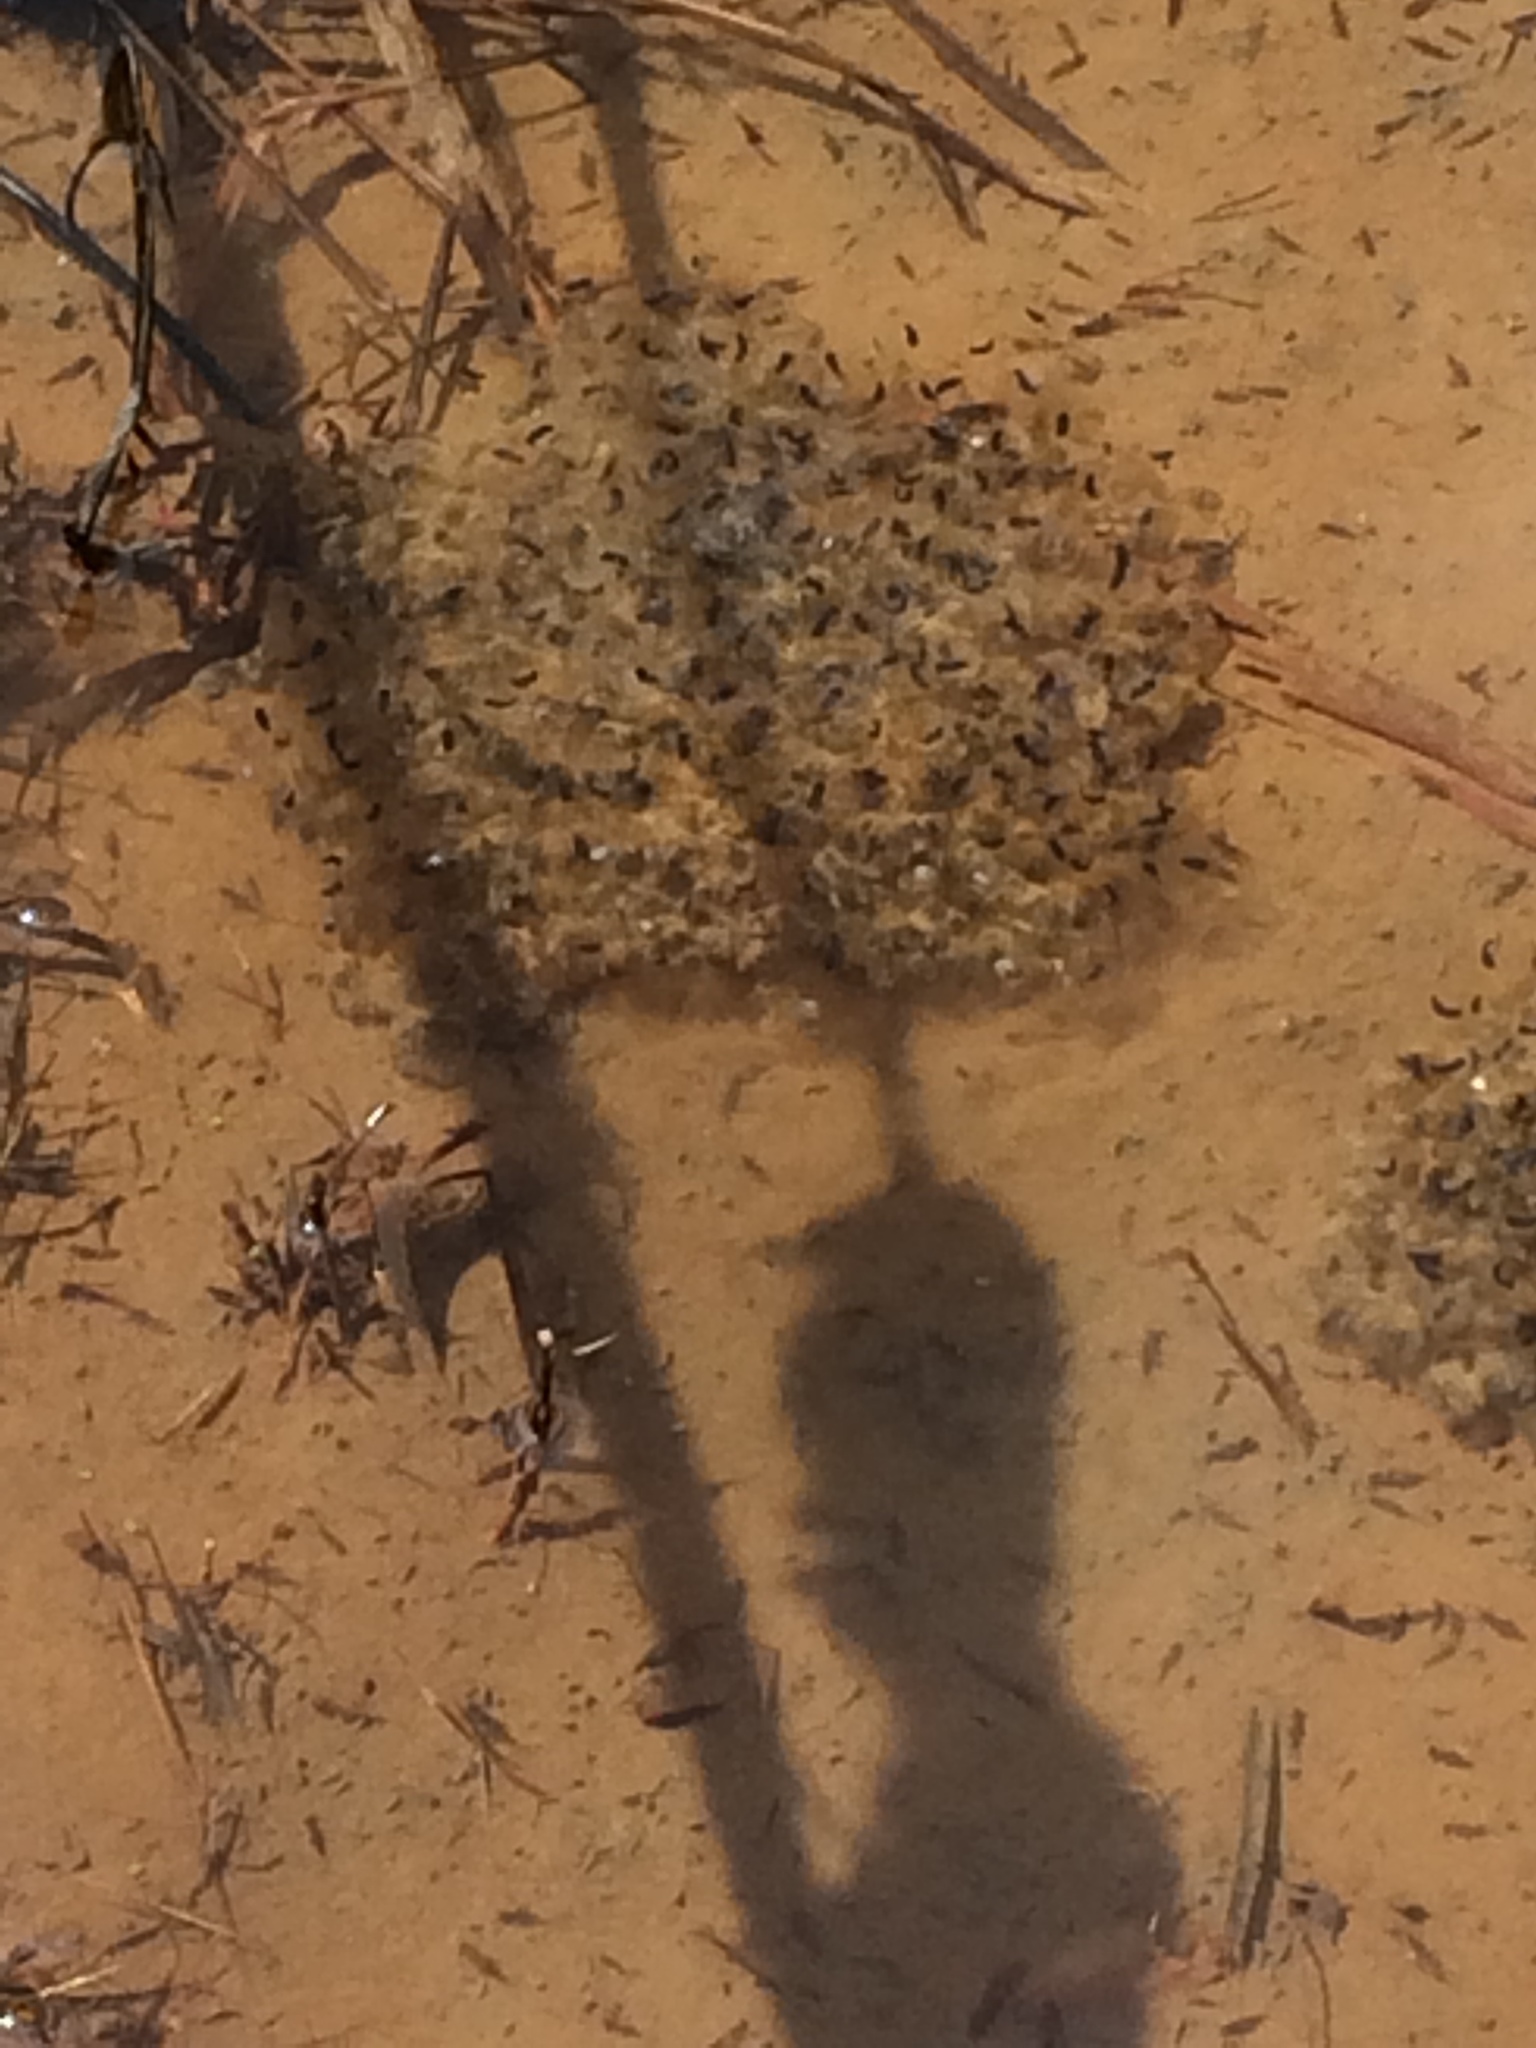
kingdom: Animalia
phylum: Chordata
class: Amphibia
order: Anura
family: Ranidae
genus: Lithobates
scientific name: Lithobates sylvaticus
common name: Wood frog
